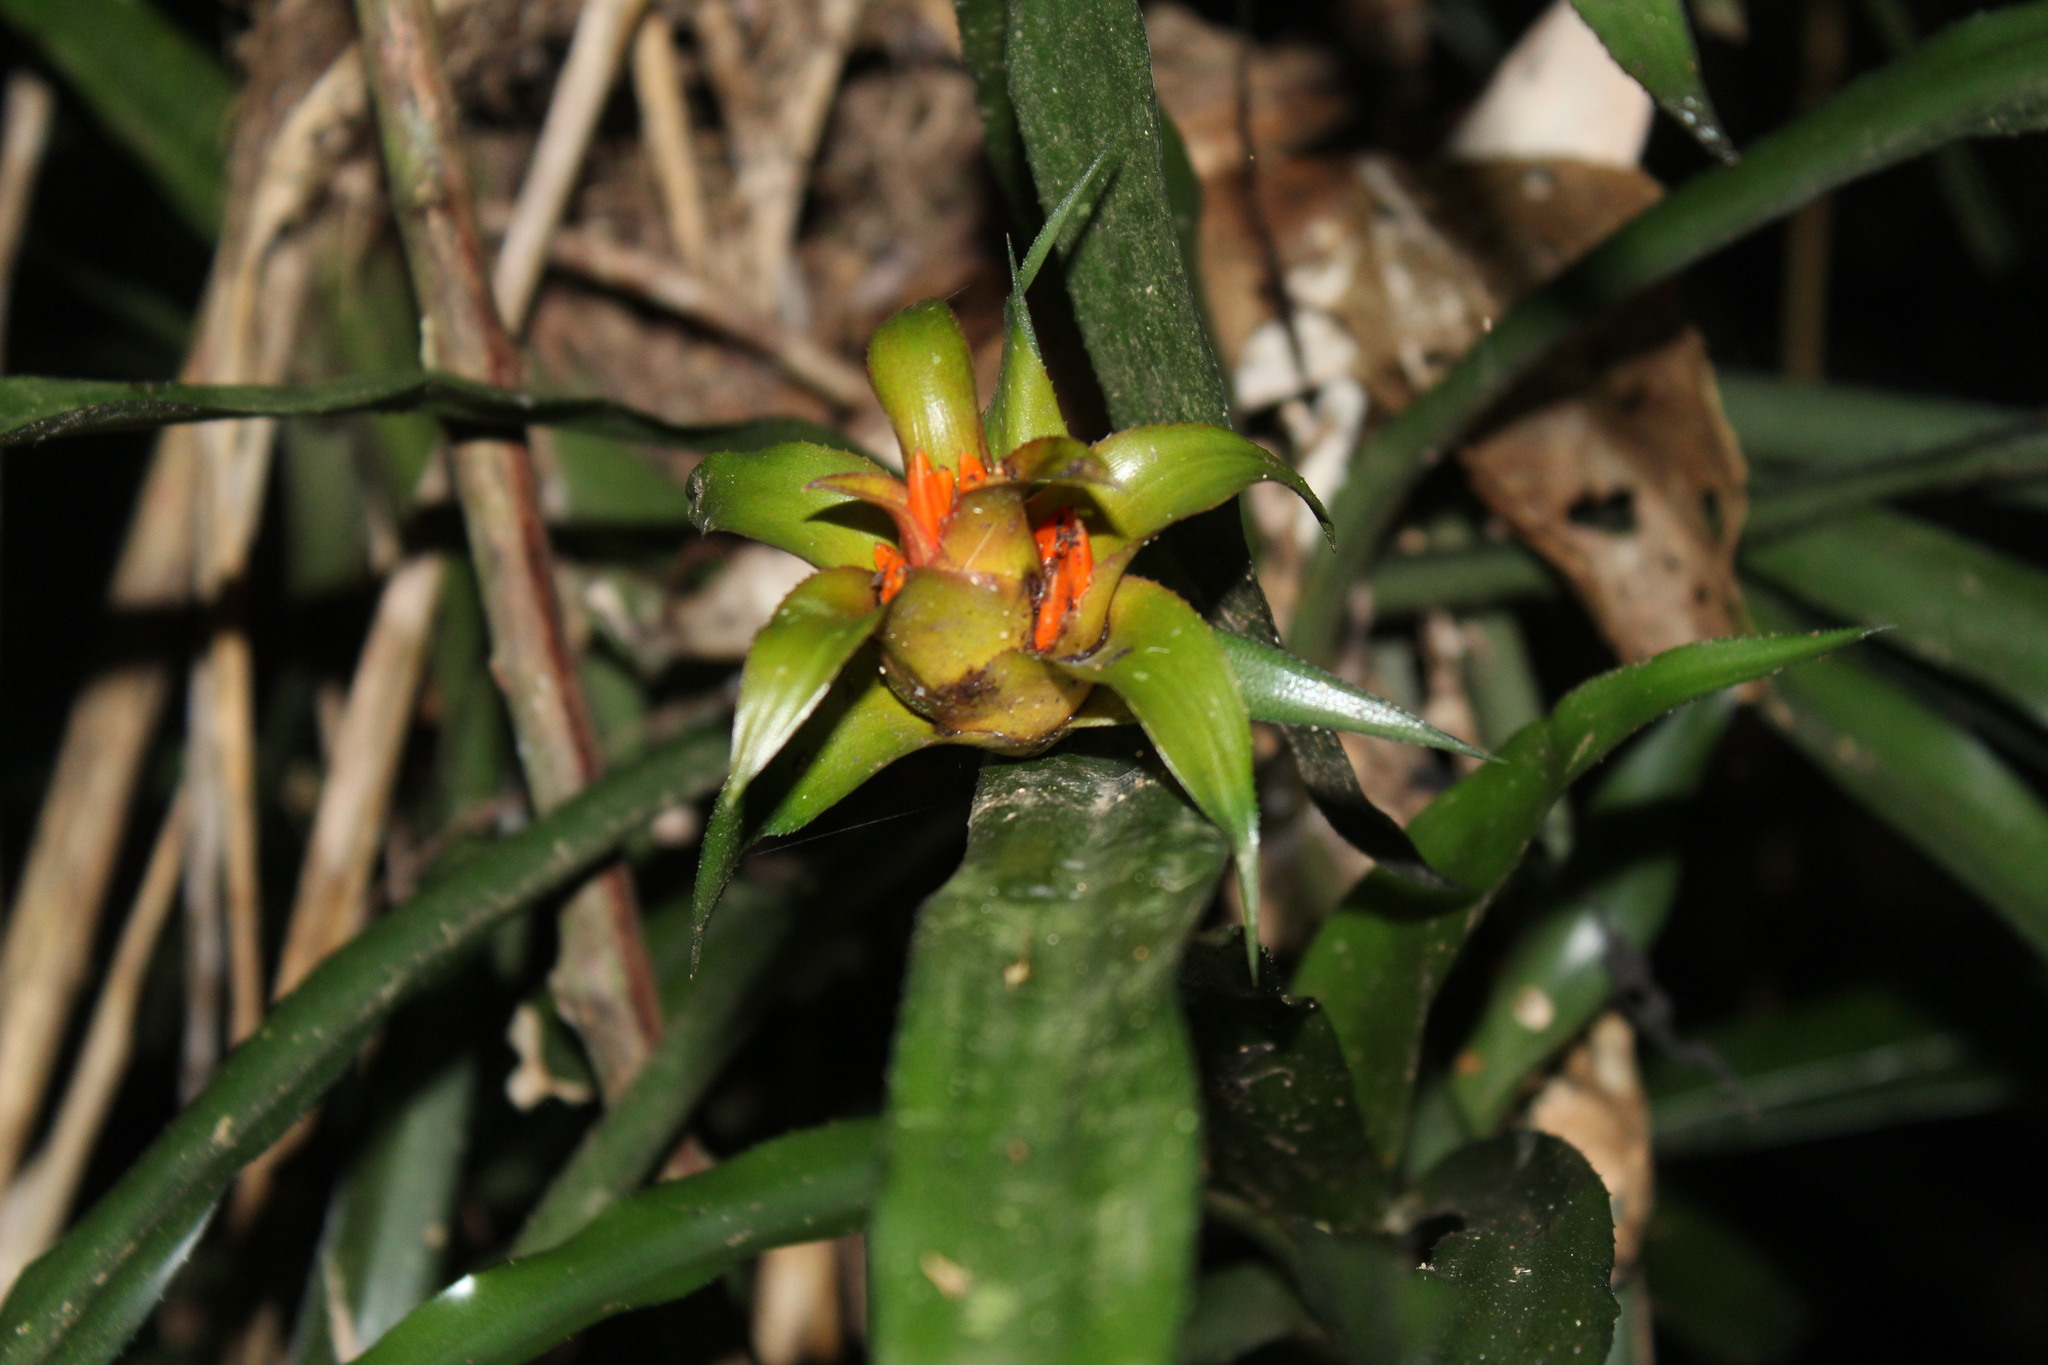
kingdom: Plantae
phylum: Tracheophyta
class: Liliopsida
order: Poales
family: Bromeliaceae
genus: Canistropsis
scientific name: Canistropsis billbergioides
